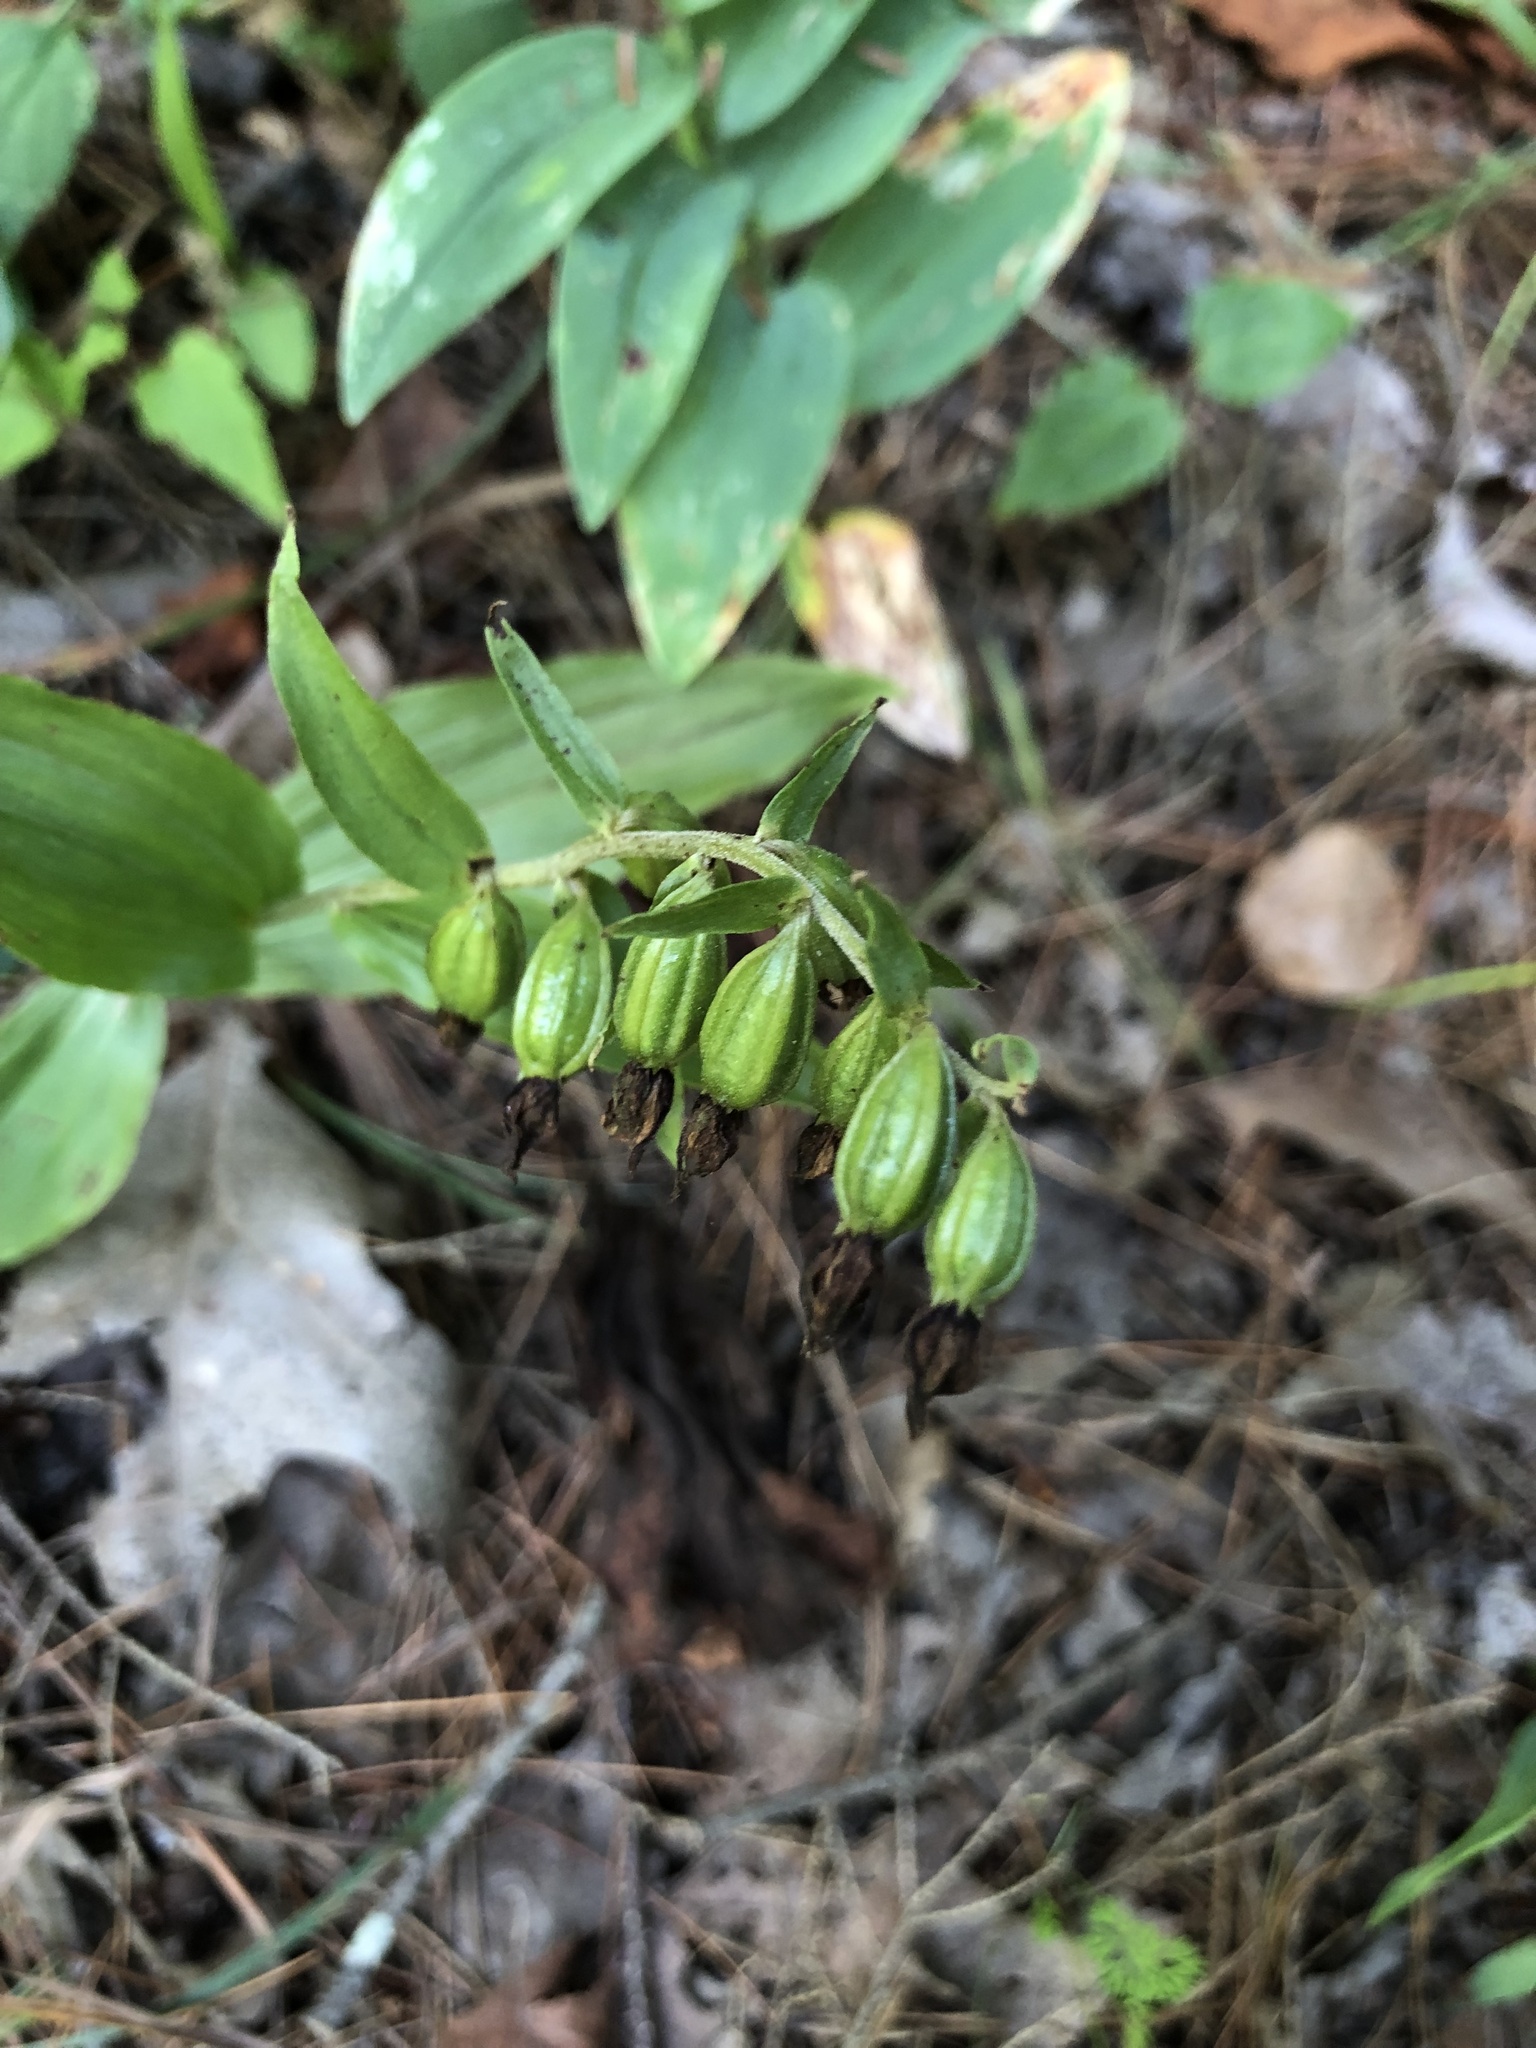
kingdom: Plantae
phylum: Tracheophyta
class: Liliopsida
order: Asparagales
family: Orchidaceae
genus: Epipactis
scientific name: Epipactis helleborine
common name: Broad-leaved helleborine
